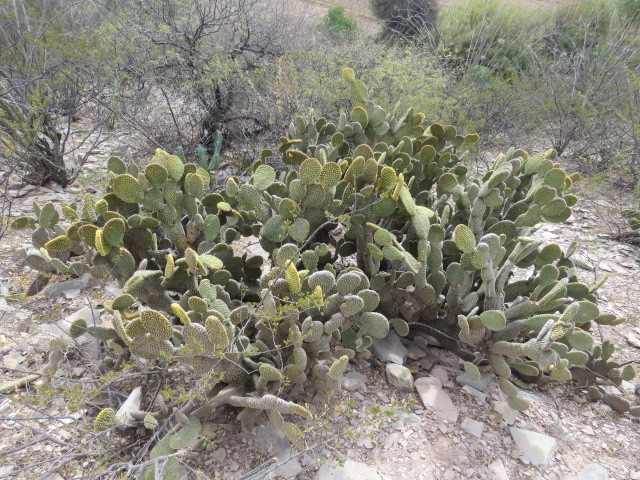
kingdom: Plantae
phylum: Tracheophyta
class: Magnoliopsida
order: Caryophyllales
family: Cactaceae
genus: Opuntia
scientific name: Opuntia microdasys
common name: Angel's-wings
